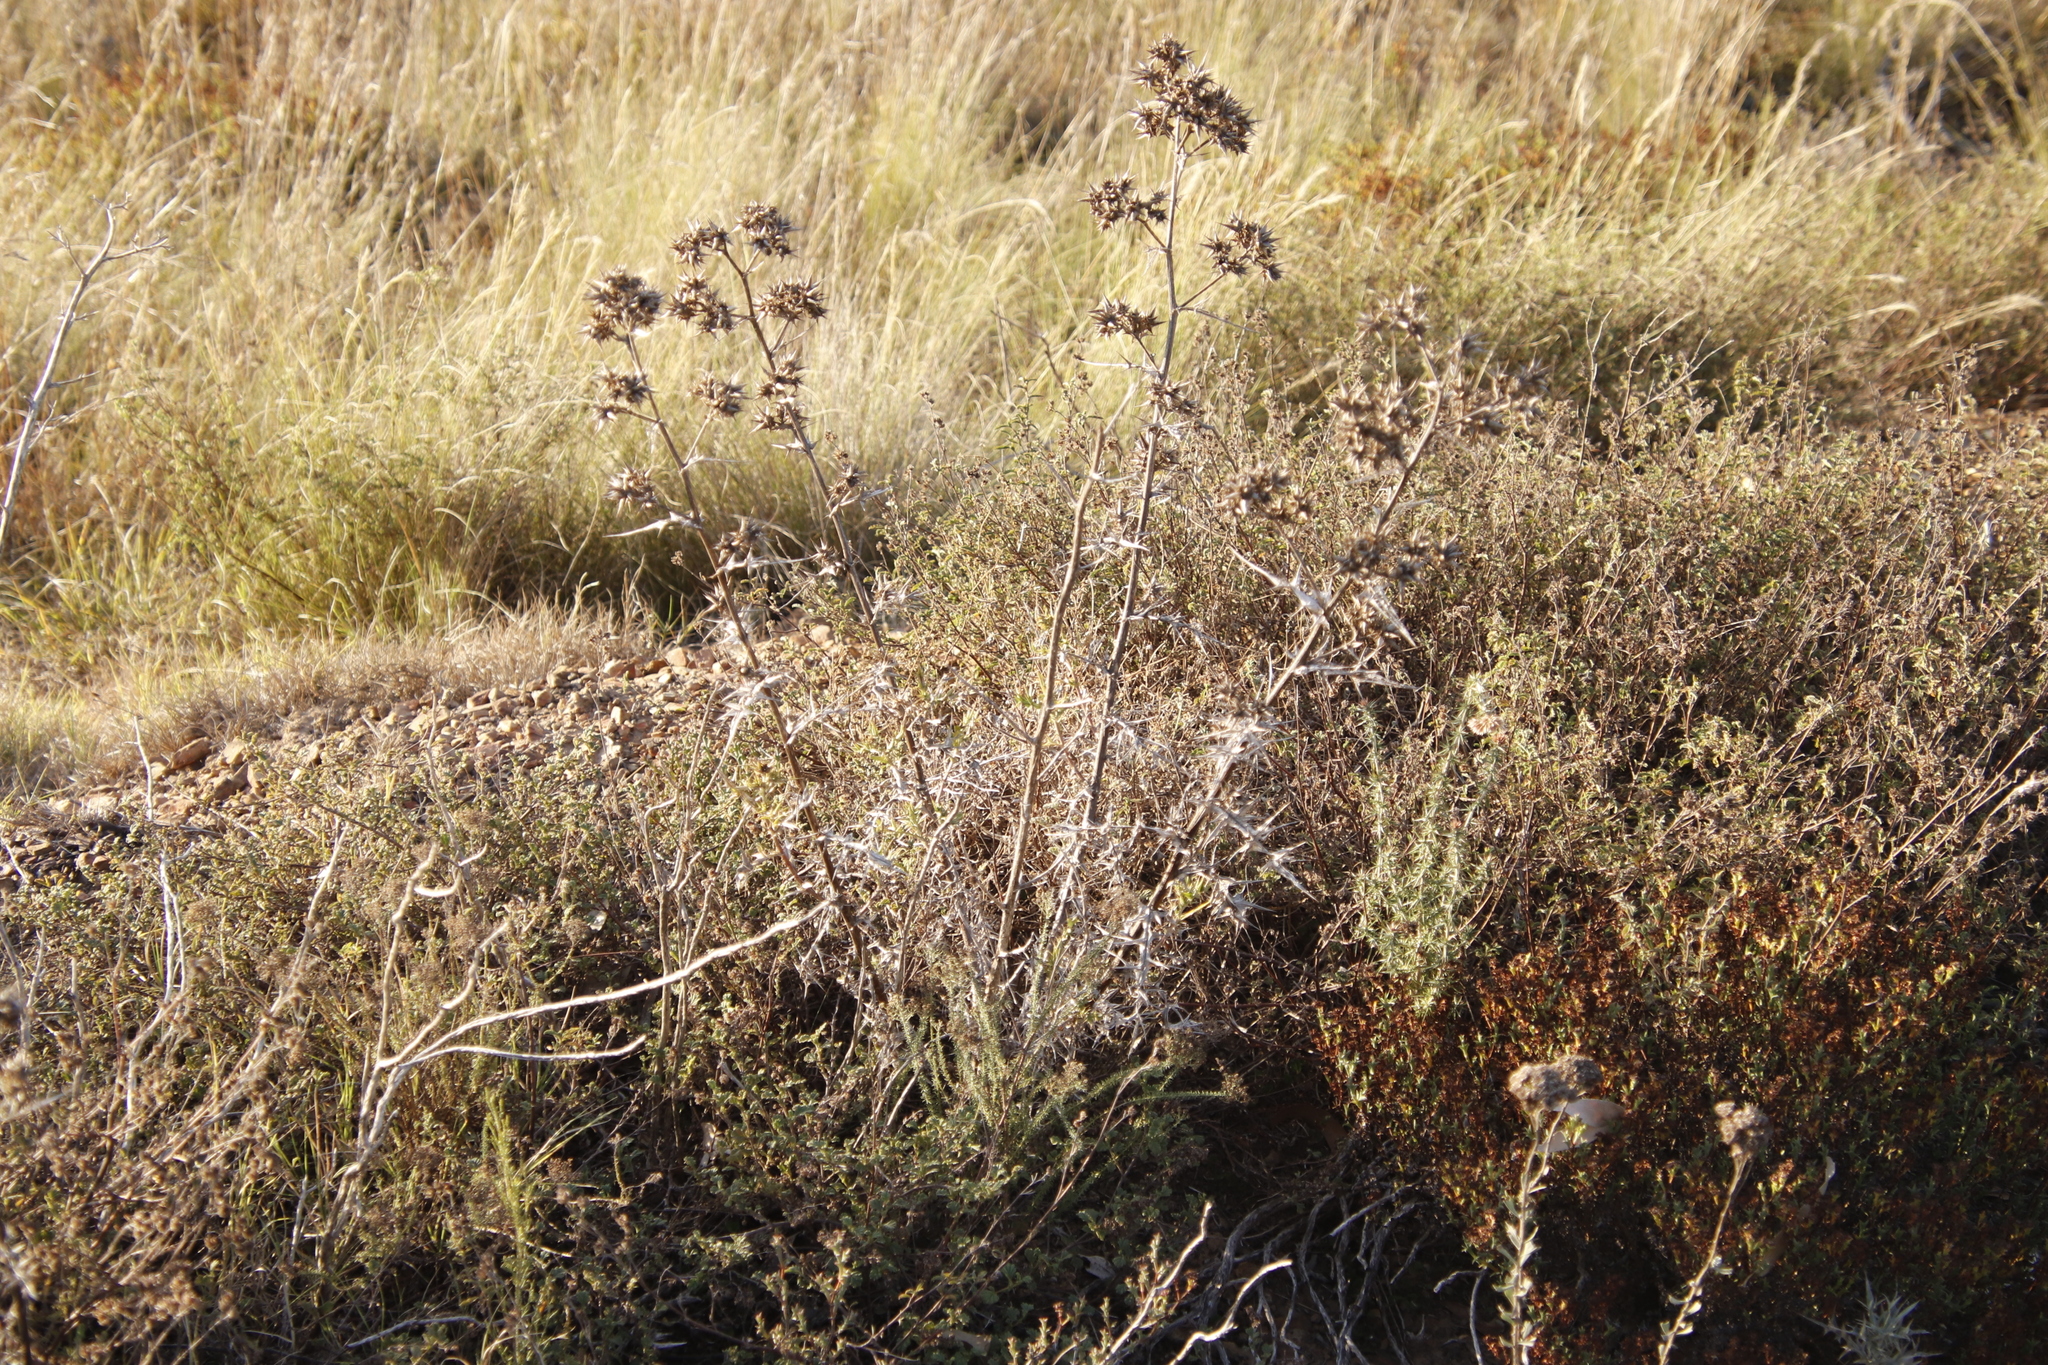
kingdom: Plantae
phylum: Tracheophyta
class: Magnoliopsida
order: Asterales
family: Asteraceae
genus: Berkheya
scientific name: Berkheya rigida
